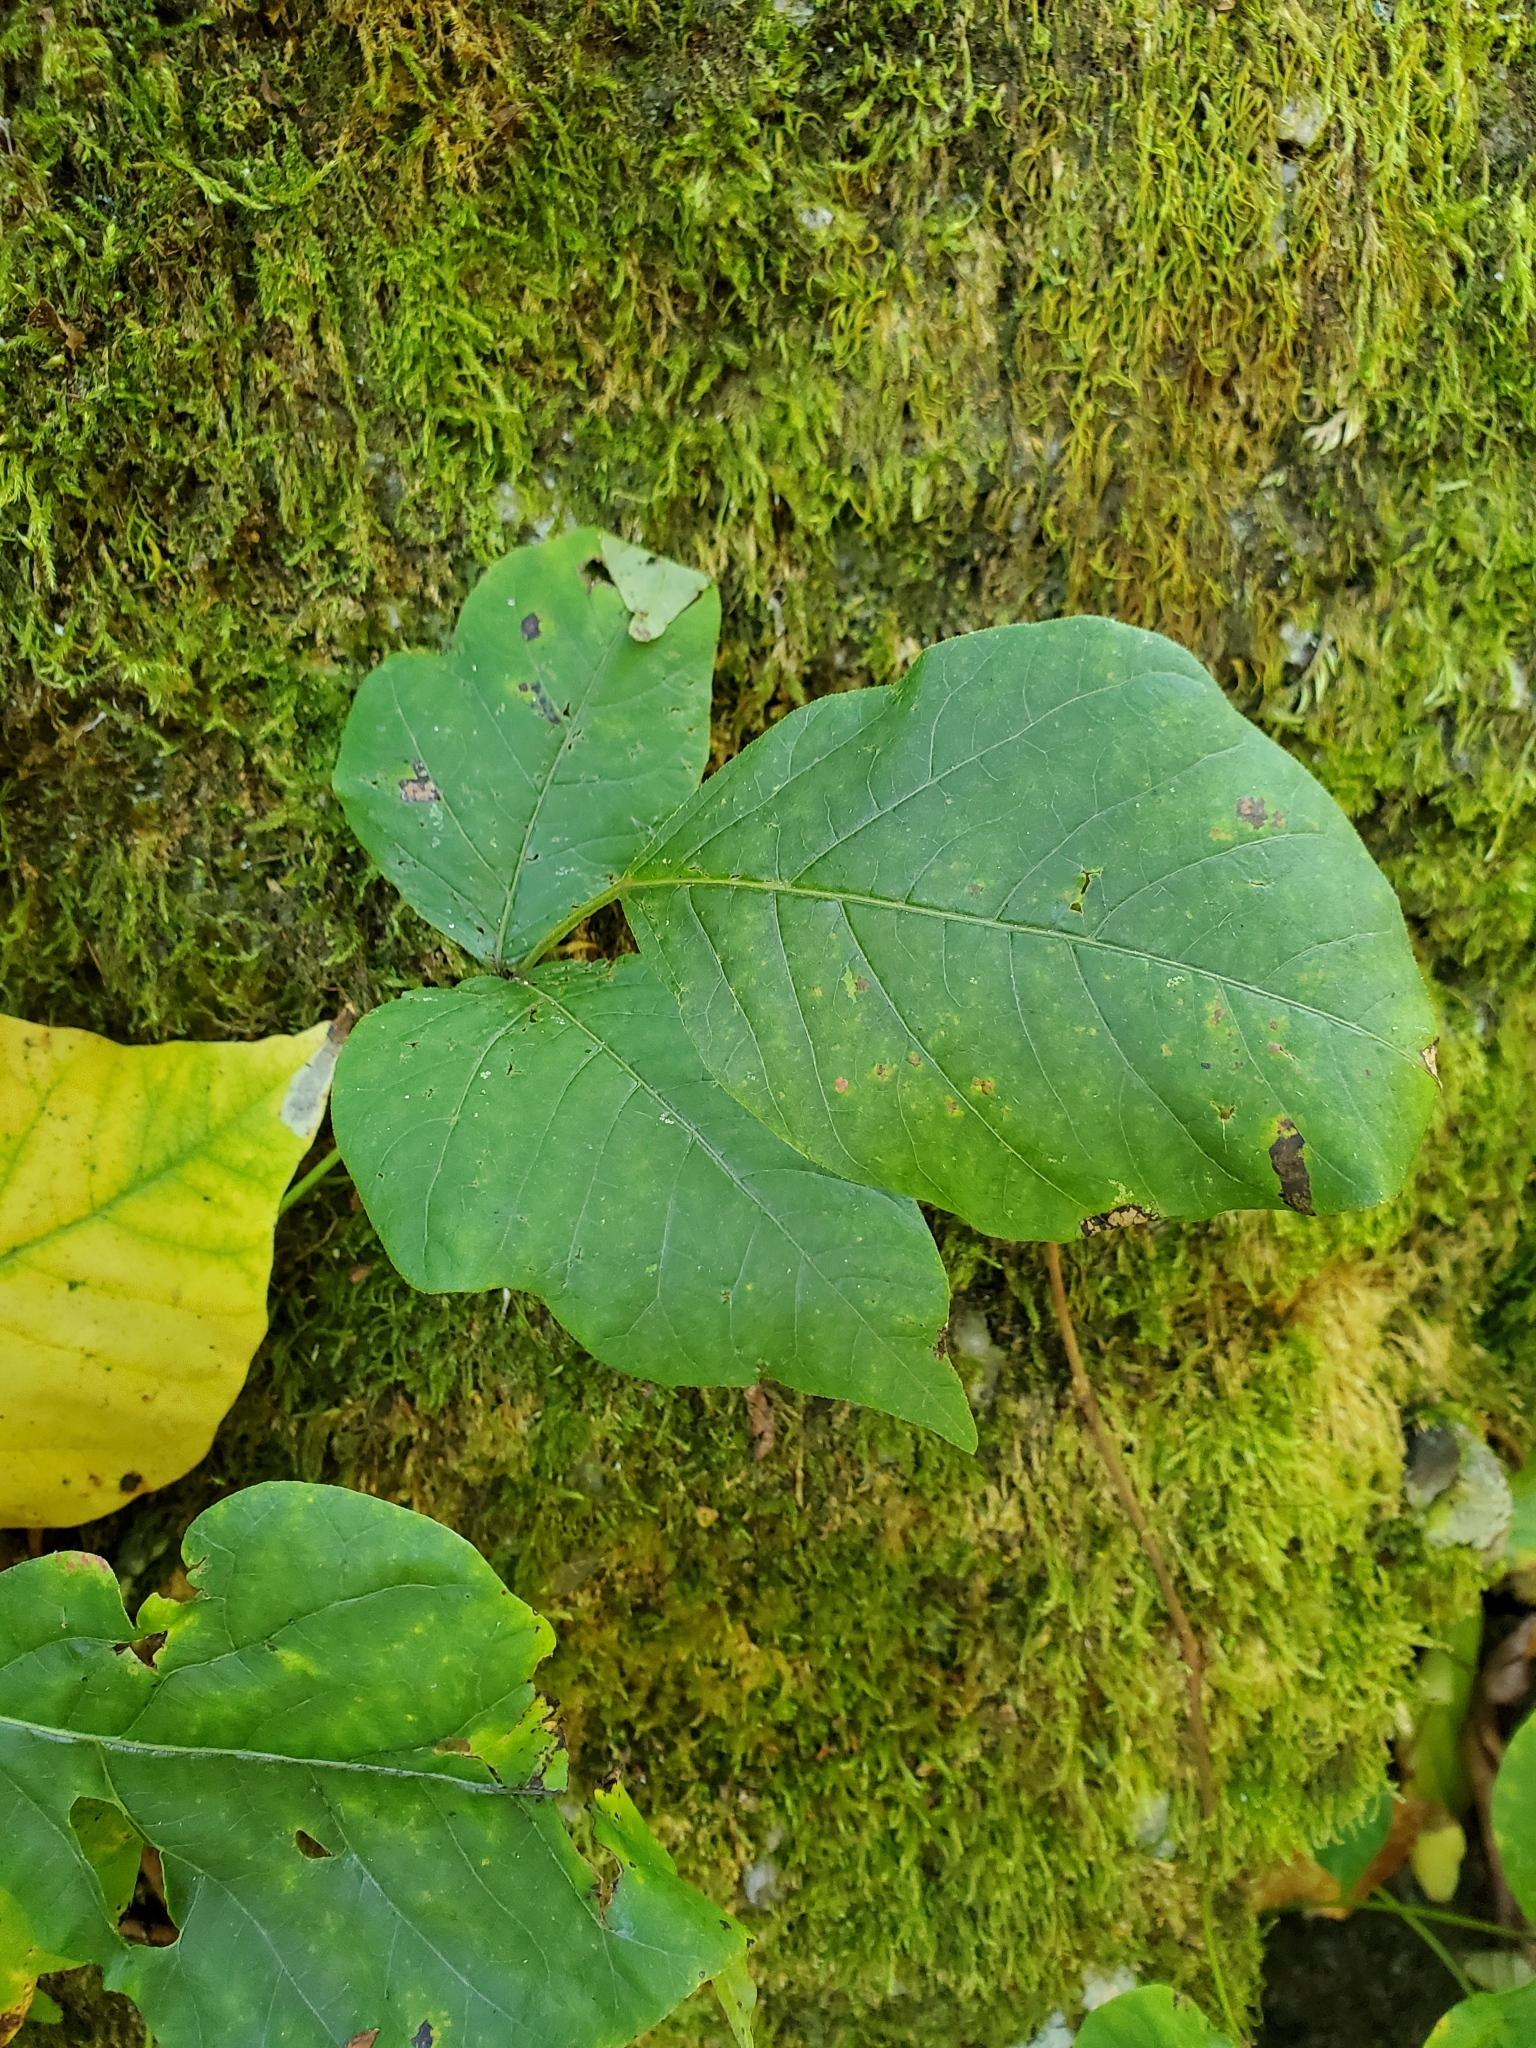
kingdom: Plantae
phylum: Tracheophyta
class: Magnoliopsida
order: Sapindales
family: Anacardiaceae
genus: Toxicodendron
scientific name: Toxicodendron radicans
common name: Poison ivy
